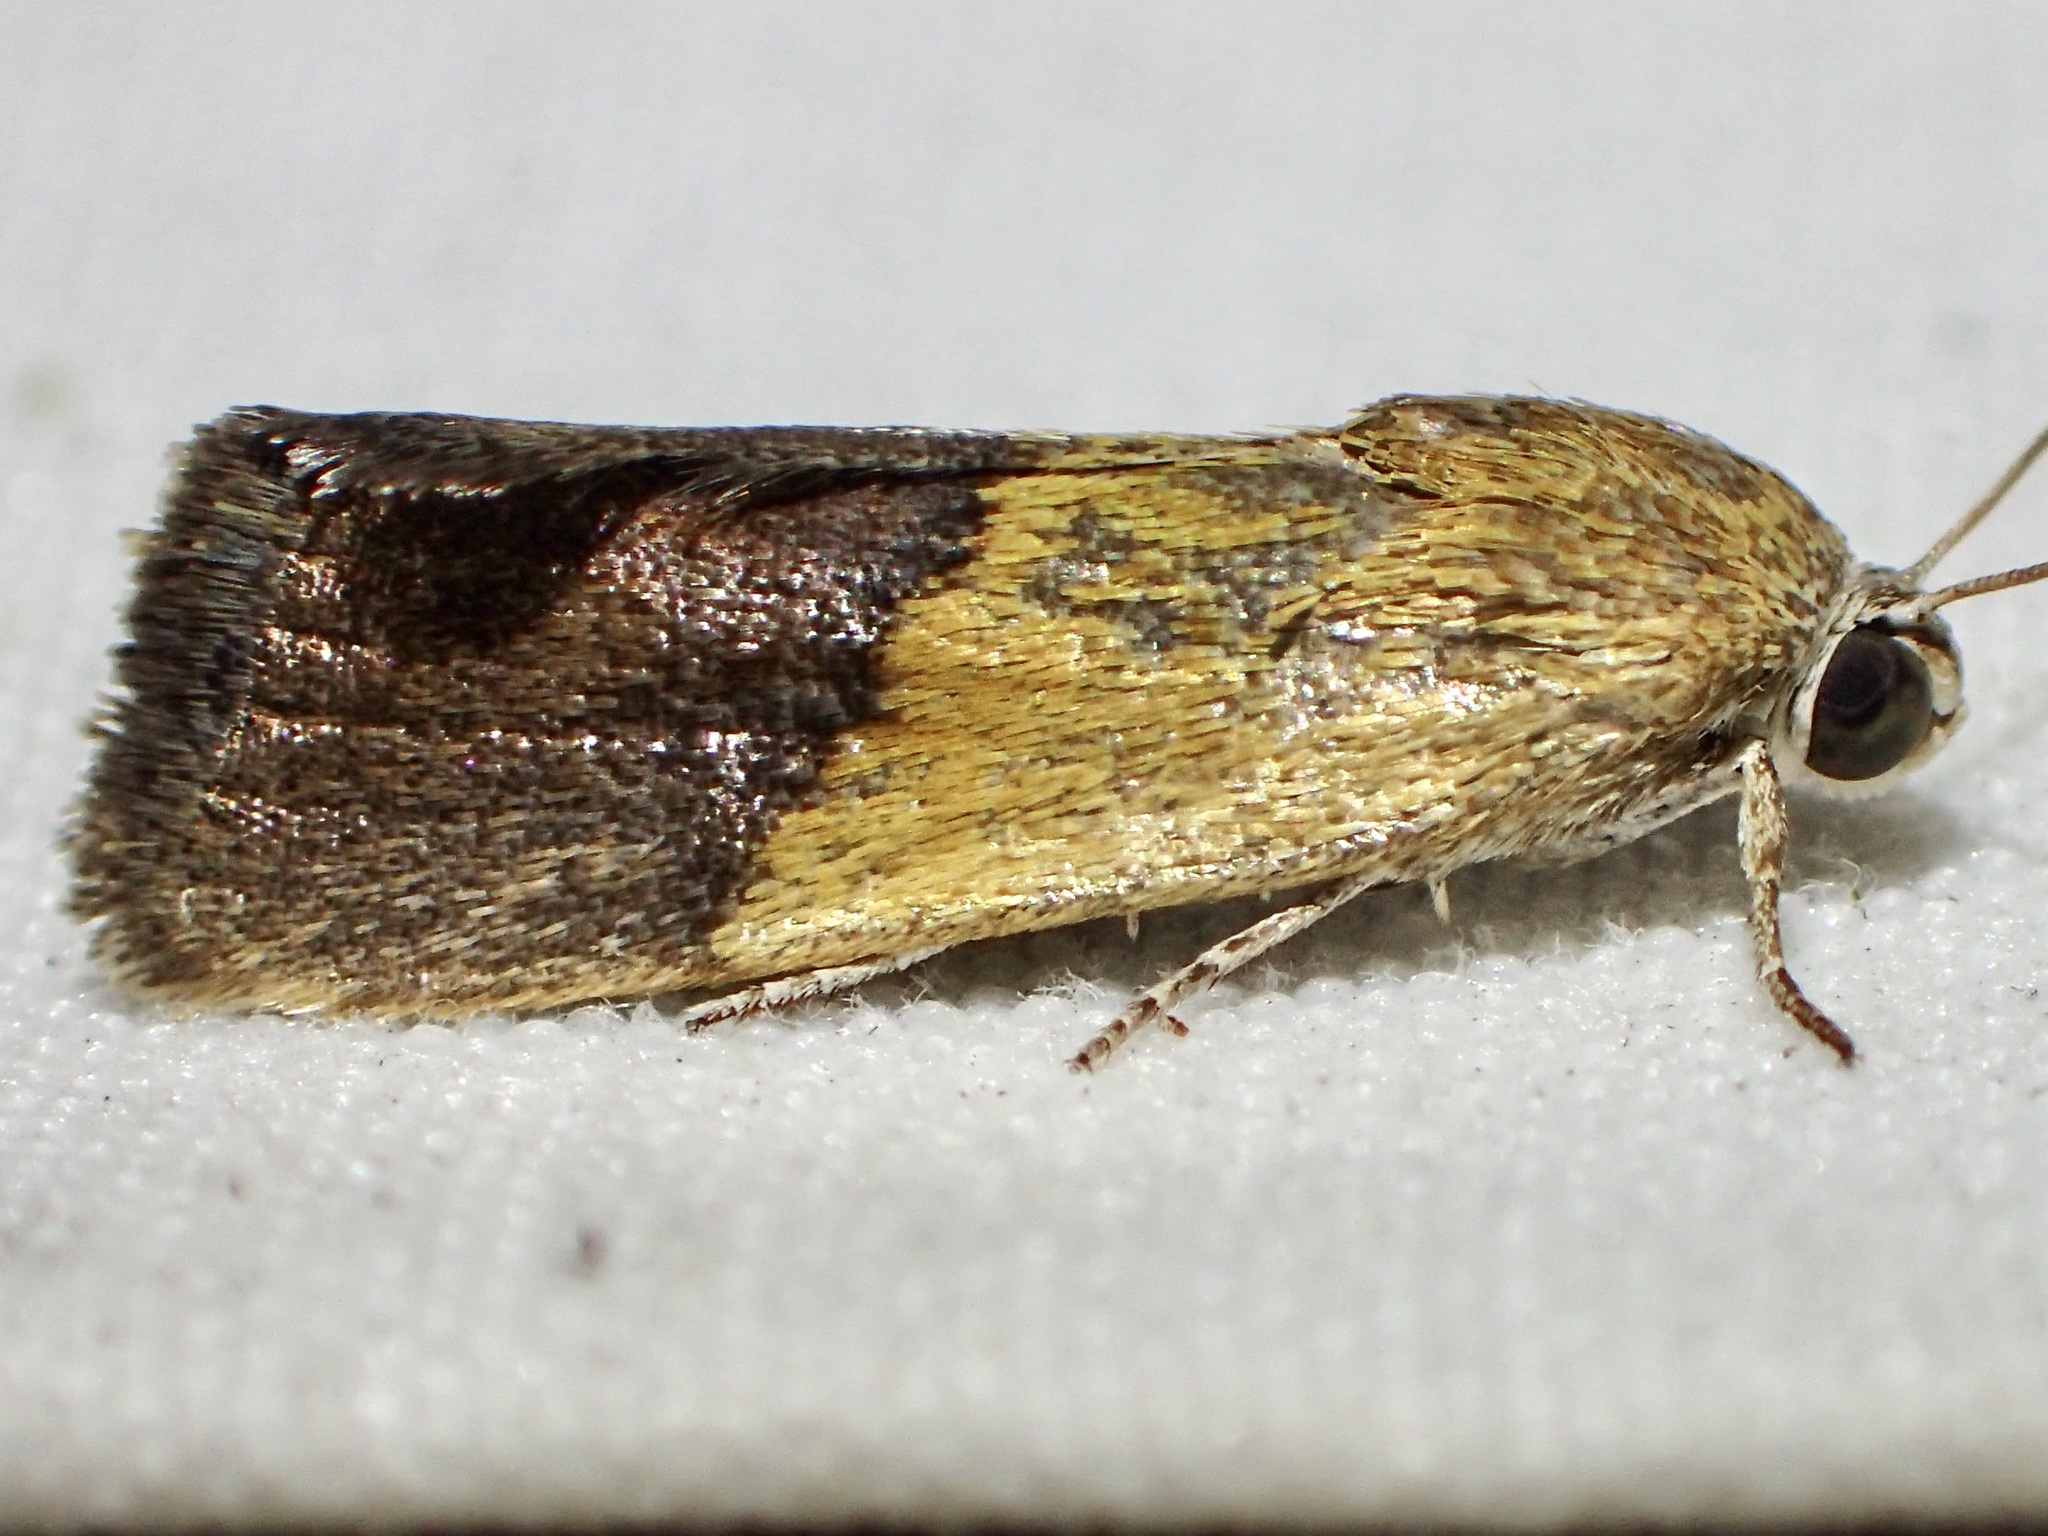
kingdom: Animalia
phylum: Arthropoda
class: Insecta
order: Lepidoptera
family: Noctuidae
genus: Acontia
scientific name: Acontia bicolorata
